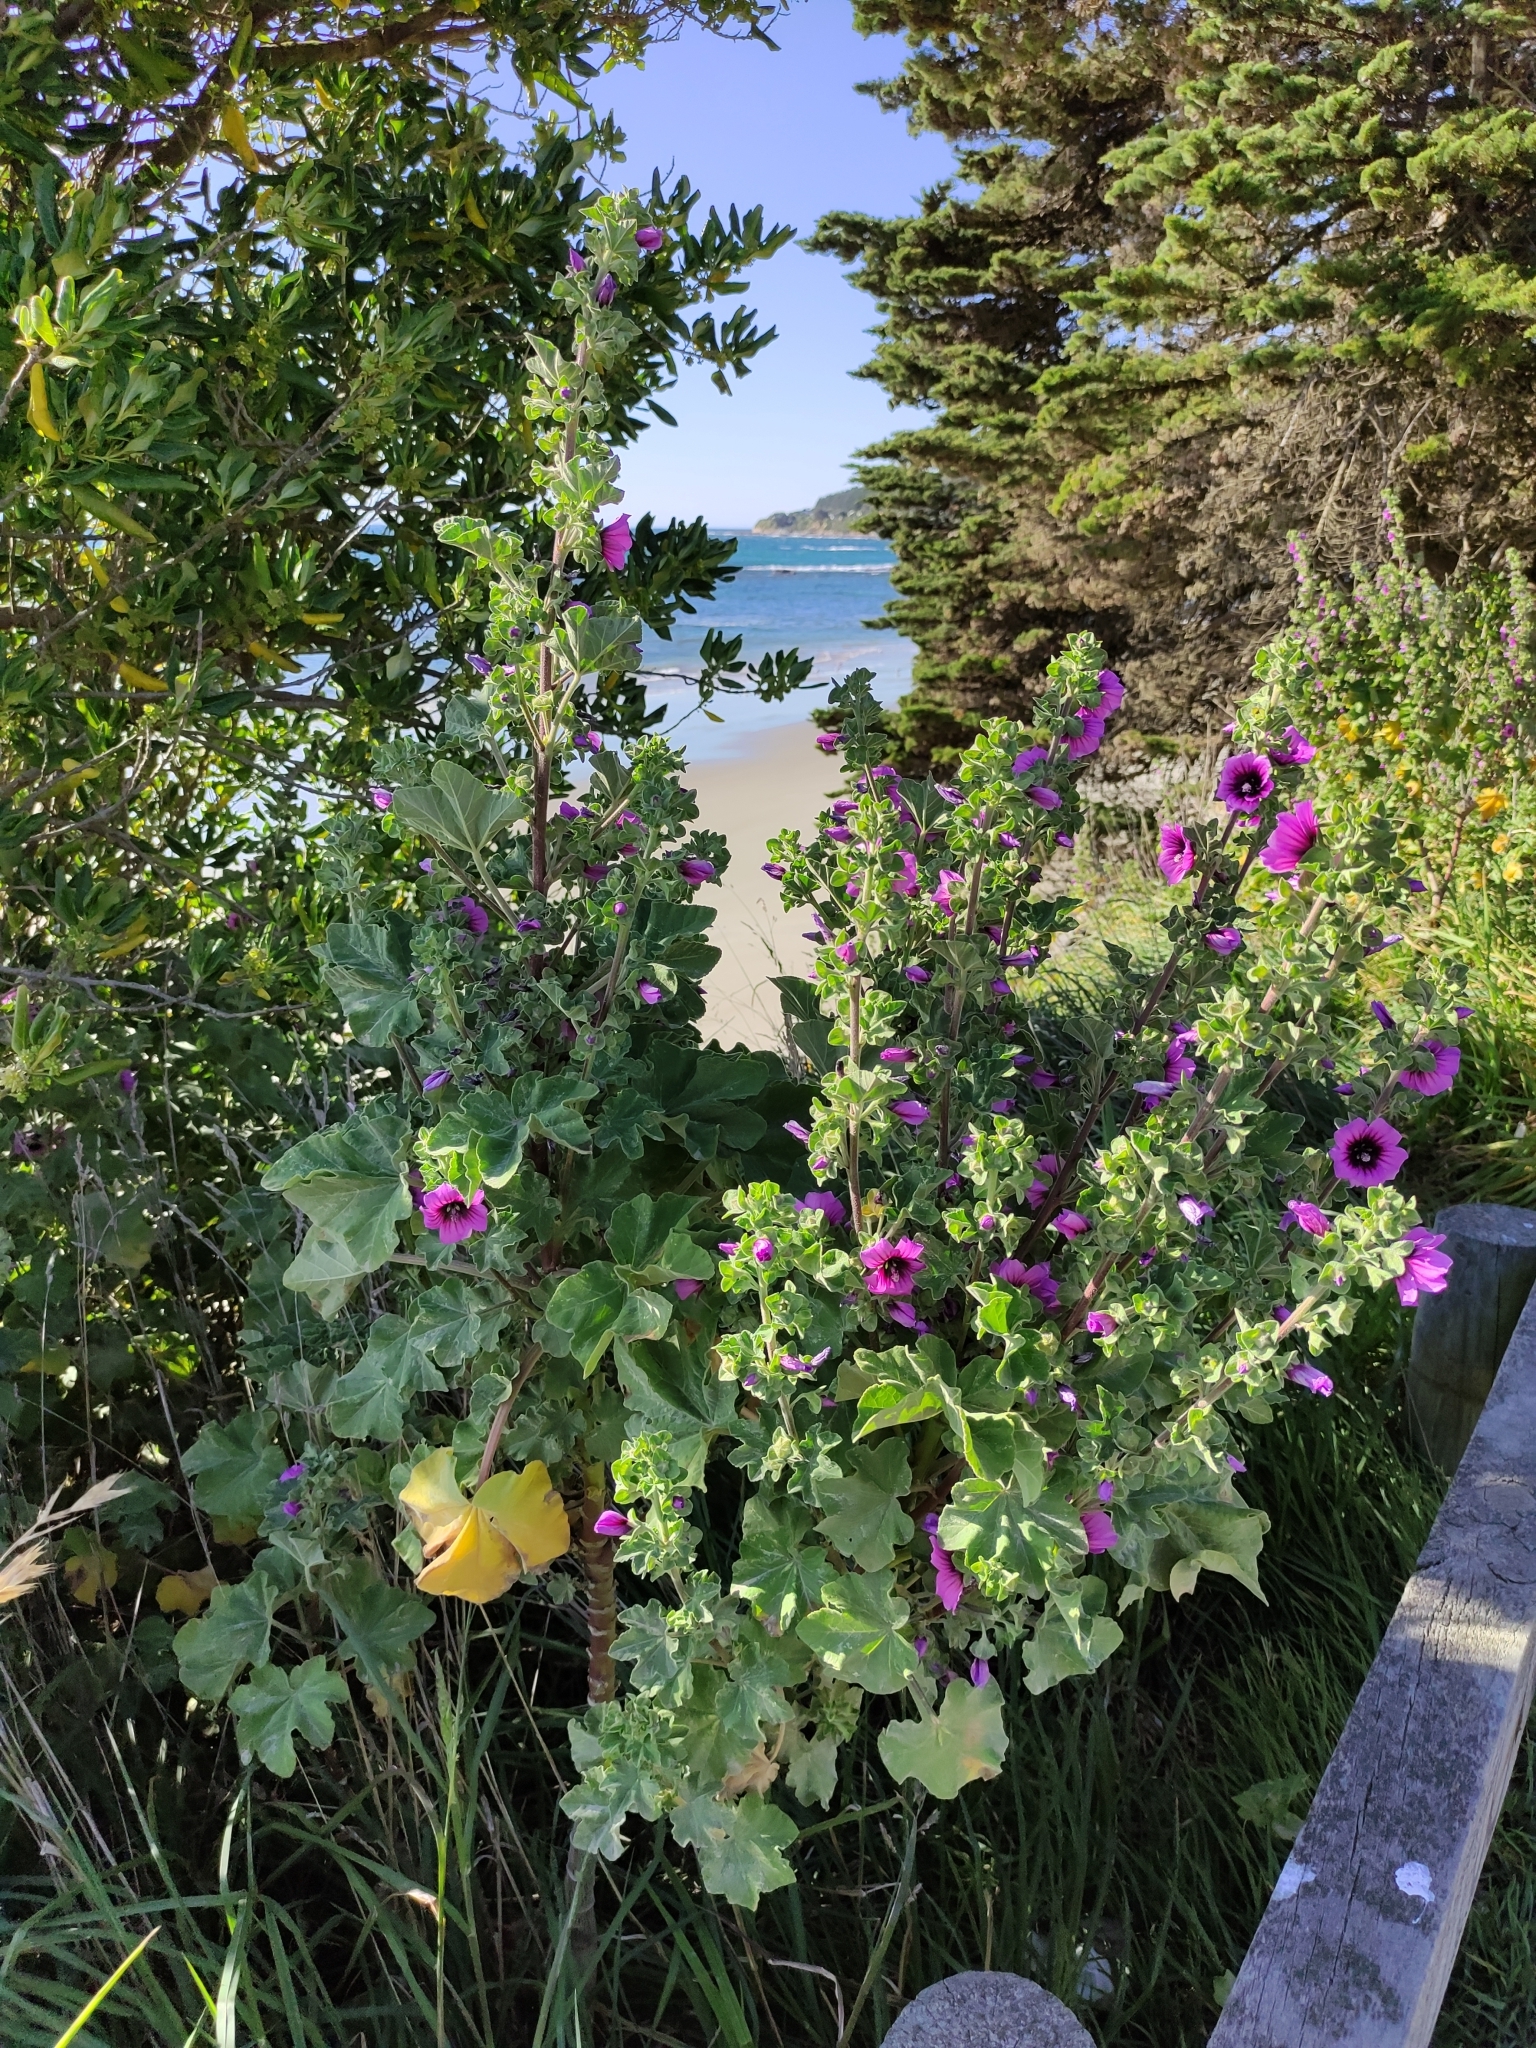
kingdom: Plantae
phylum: Tracheophyta
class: Magnoliopsida
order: Malvales
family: Malvaceae
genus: Malva
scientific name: Malva arborea
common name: Tree mallow
